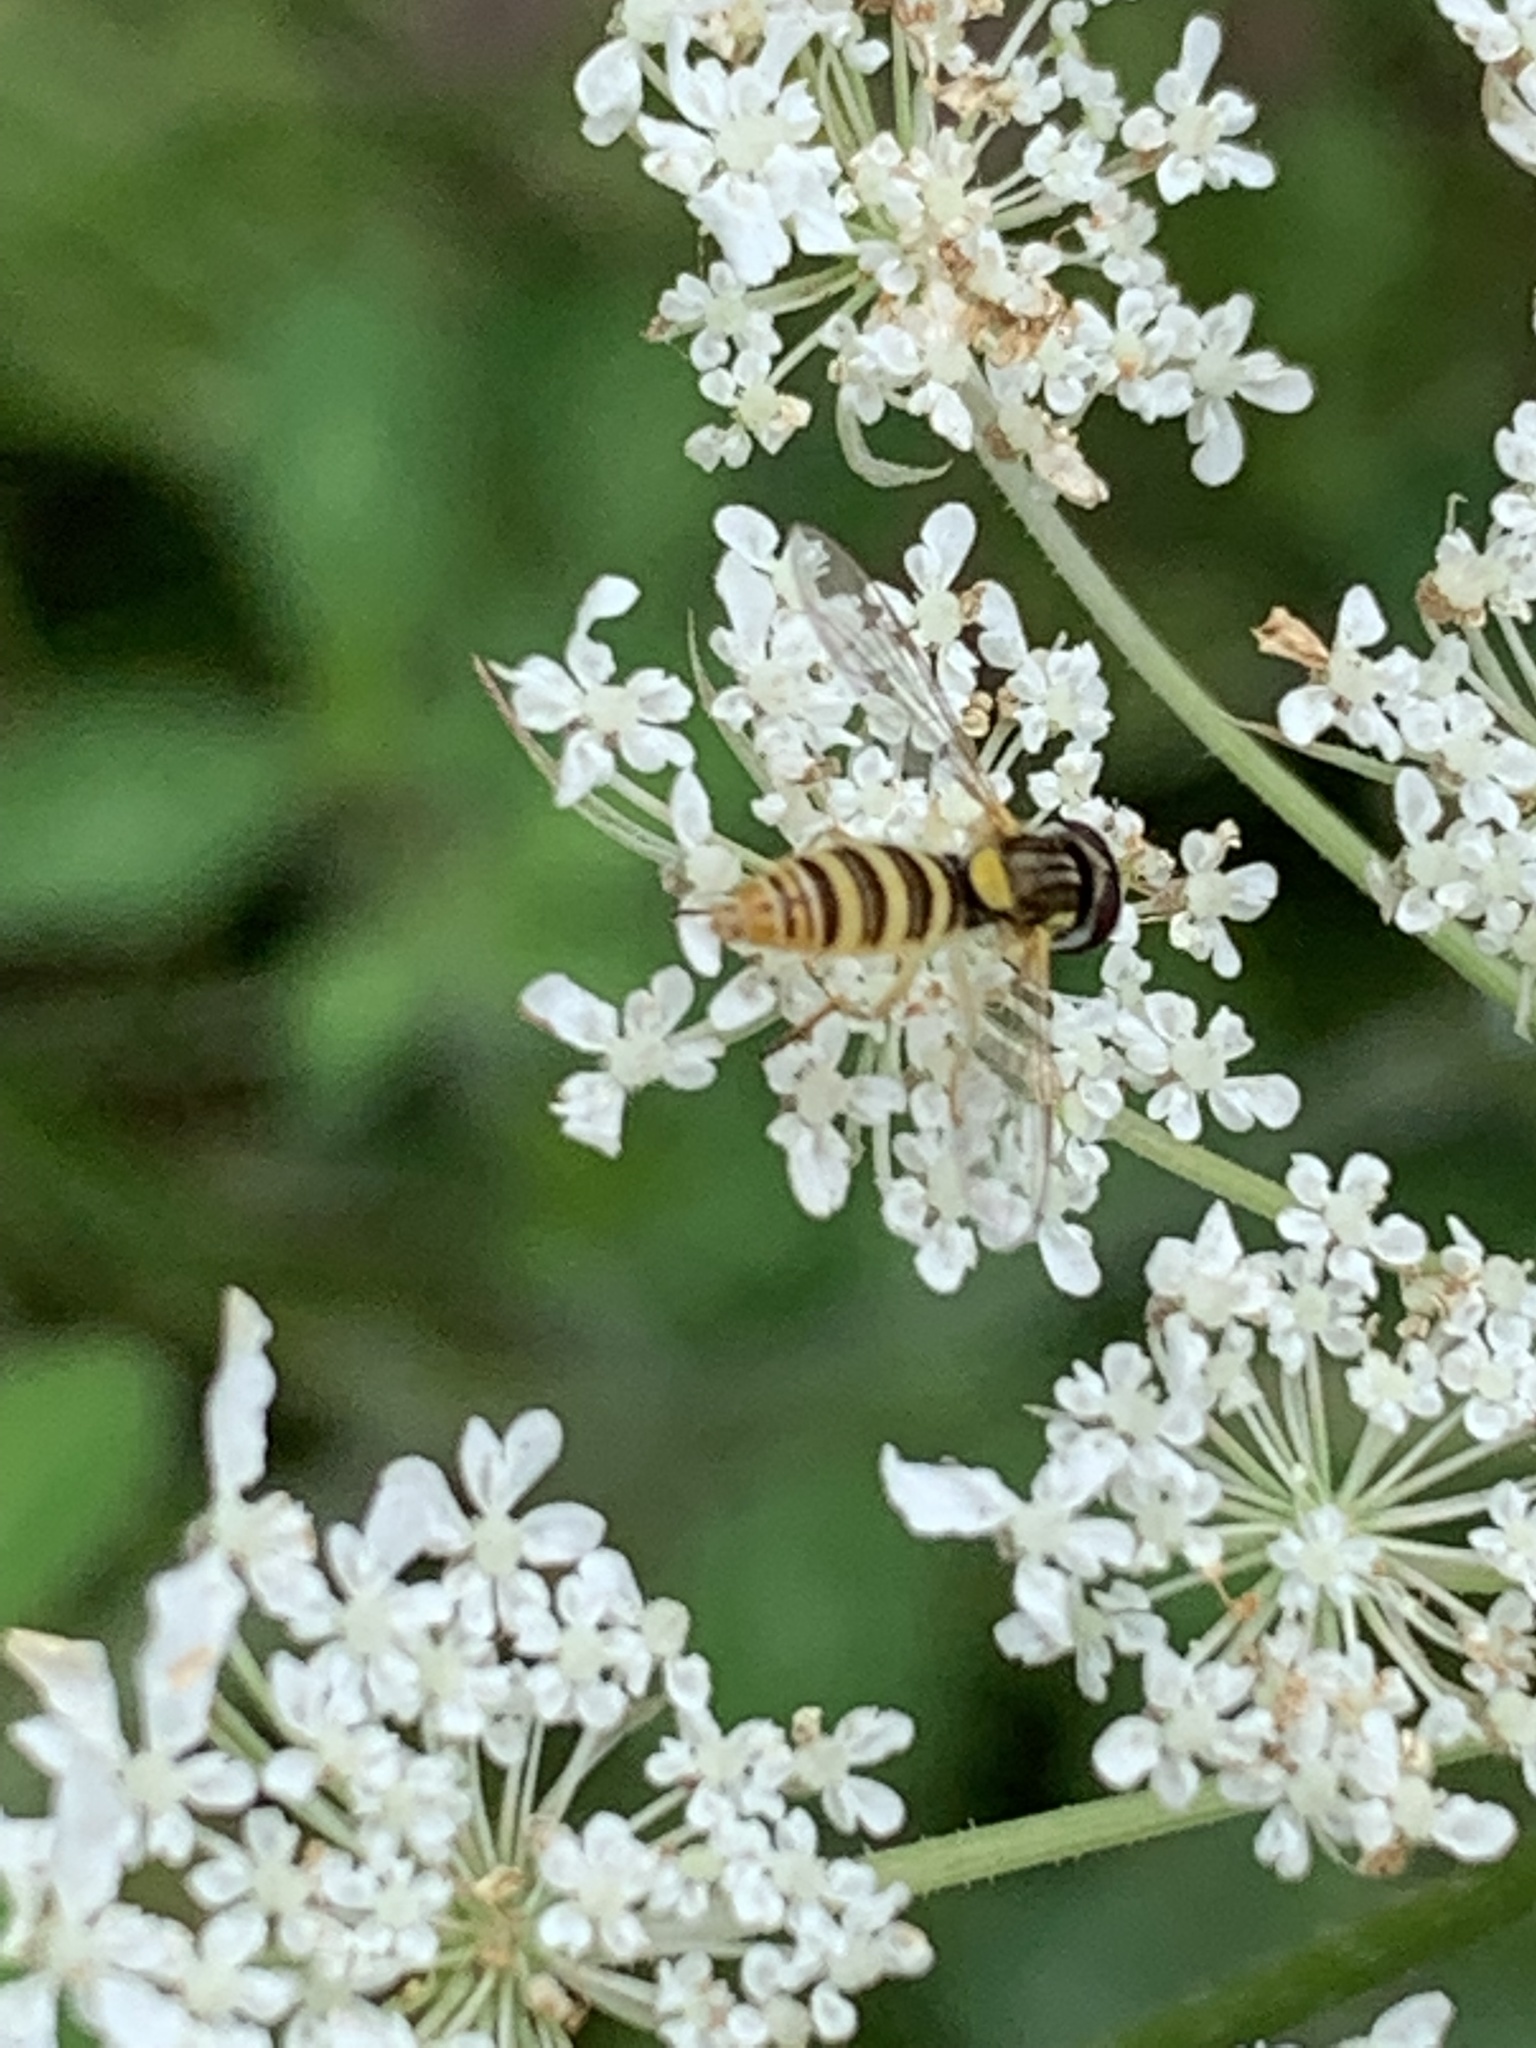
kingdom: Animalia
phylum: Arthropoda
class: Insecta
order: Diptera
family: Syrphidae
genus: Sphaerophoria
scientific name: Sphaerophoria contigua
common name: Tufted globetail
